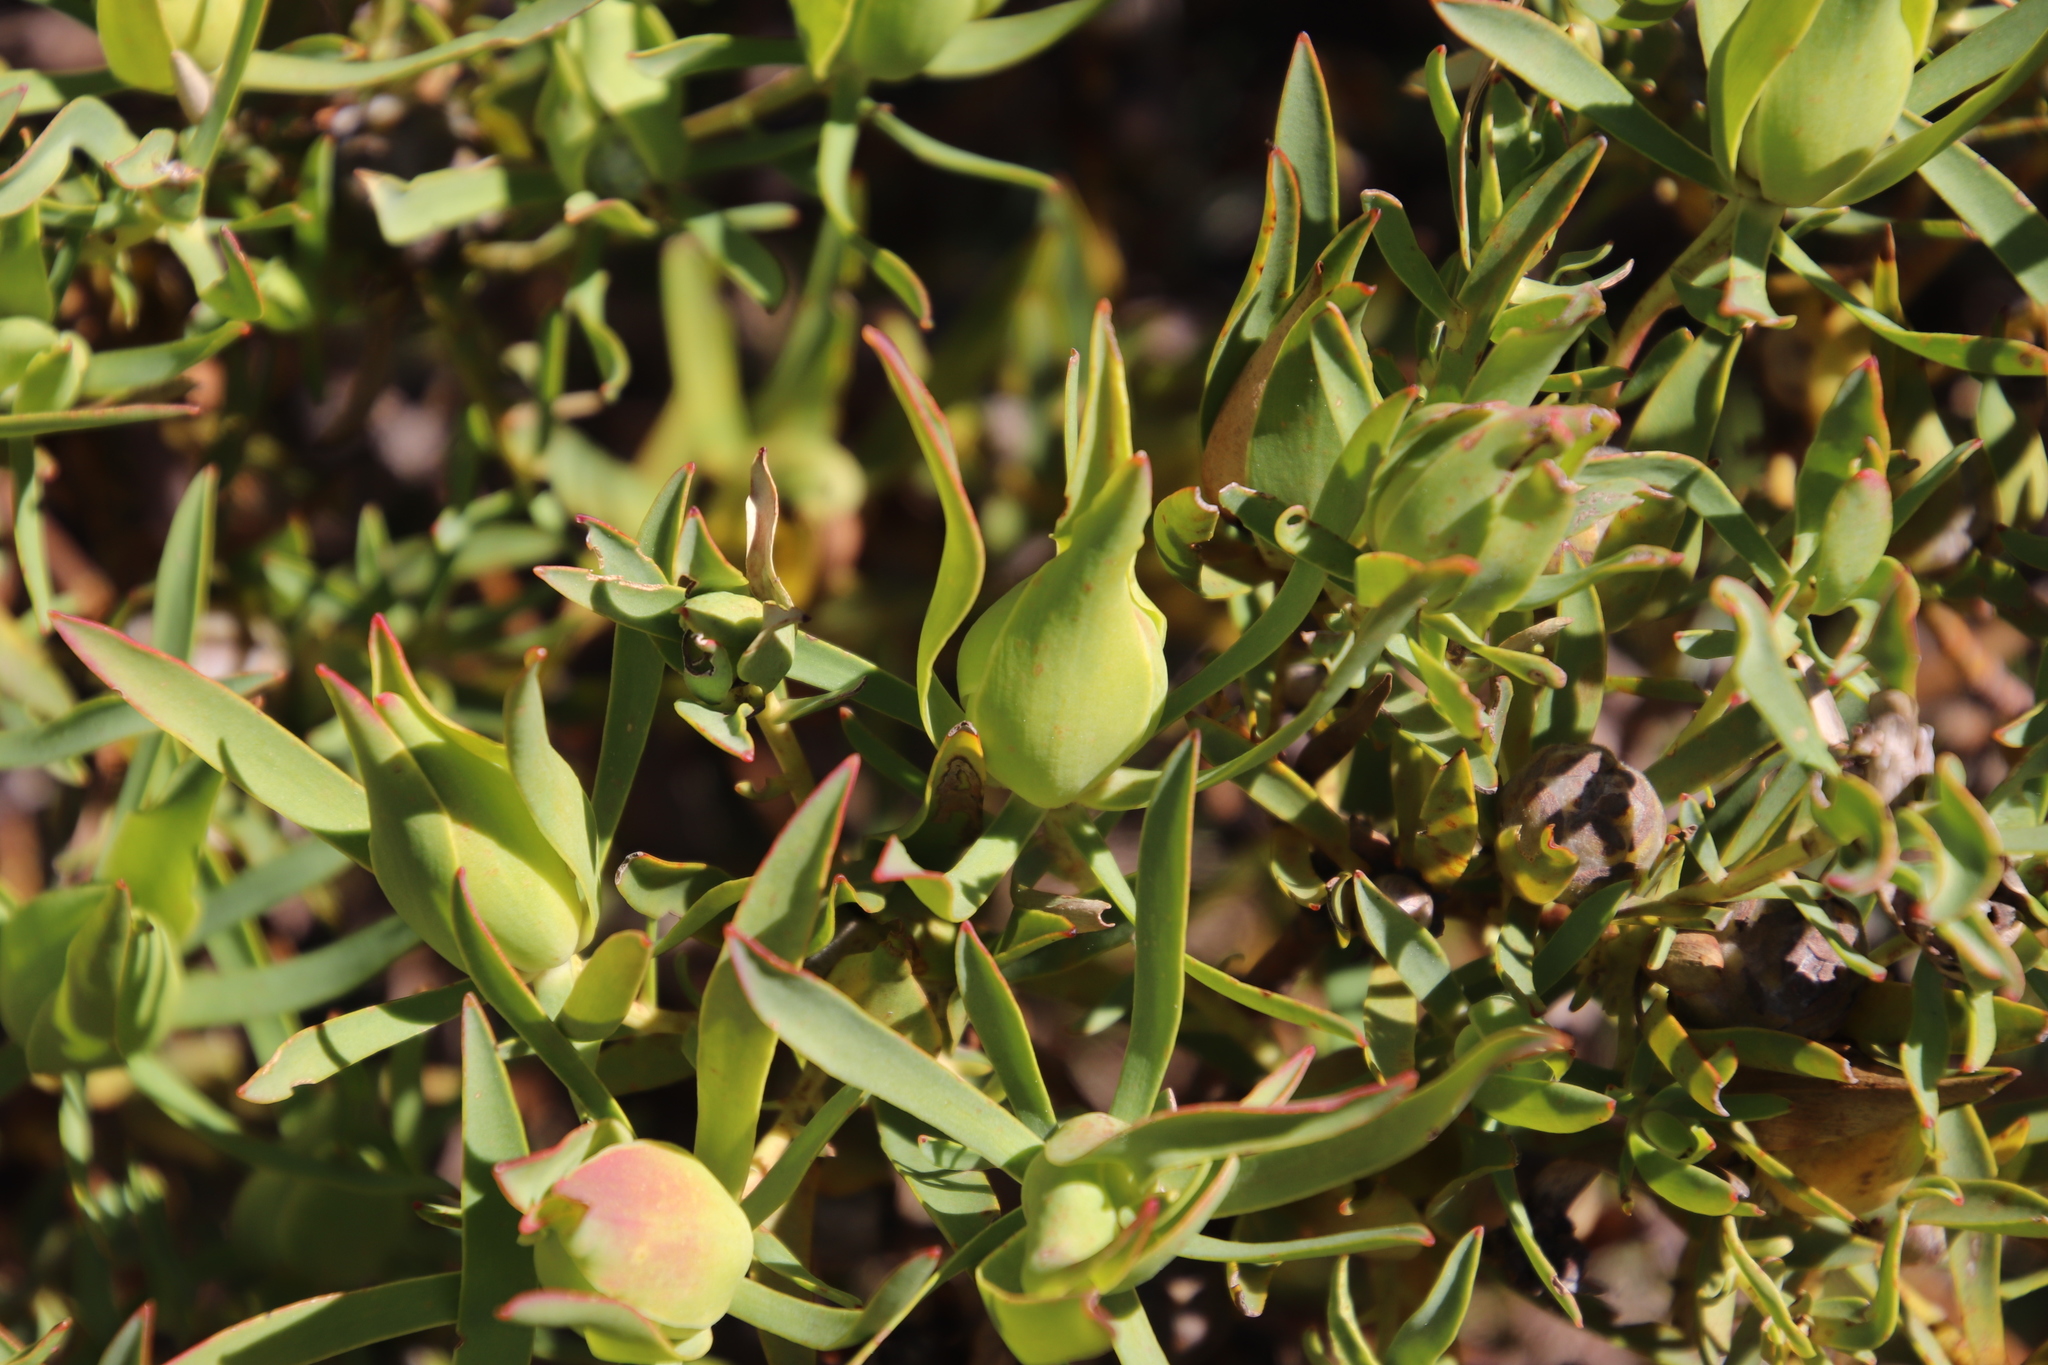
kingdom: Plantae
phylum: Tracheophyta
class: Magnoliopsida
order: Proteales
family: Proteaceae
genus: Leucadendron
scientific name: Leucadendron salignum
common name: Common sunshine conebush
